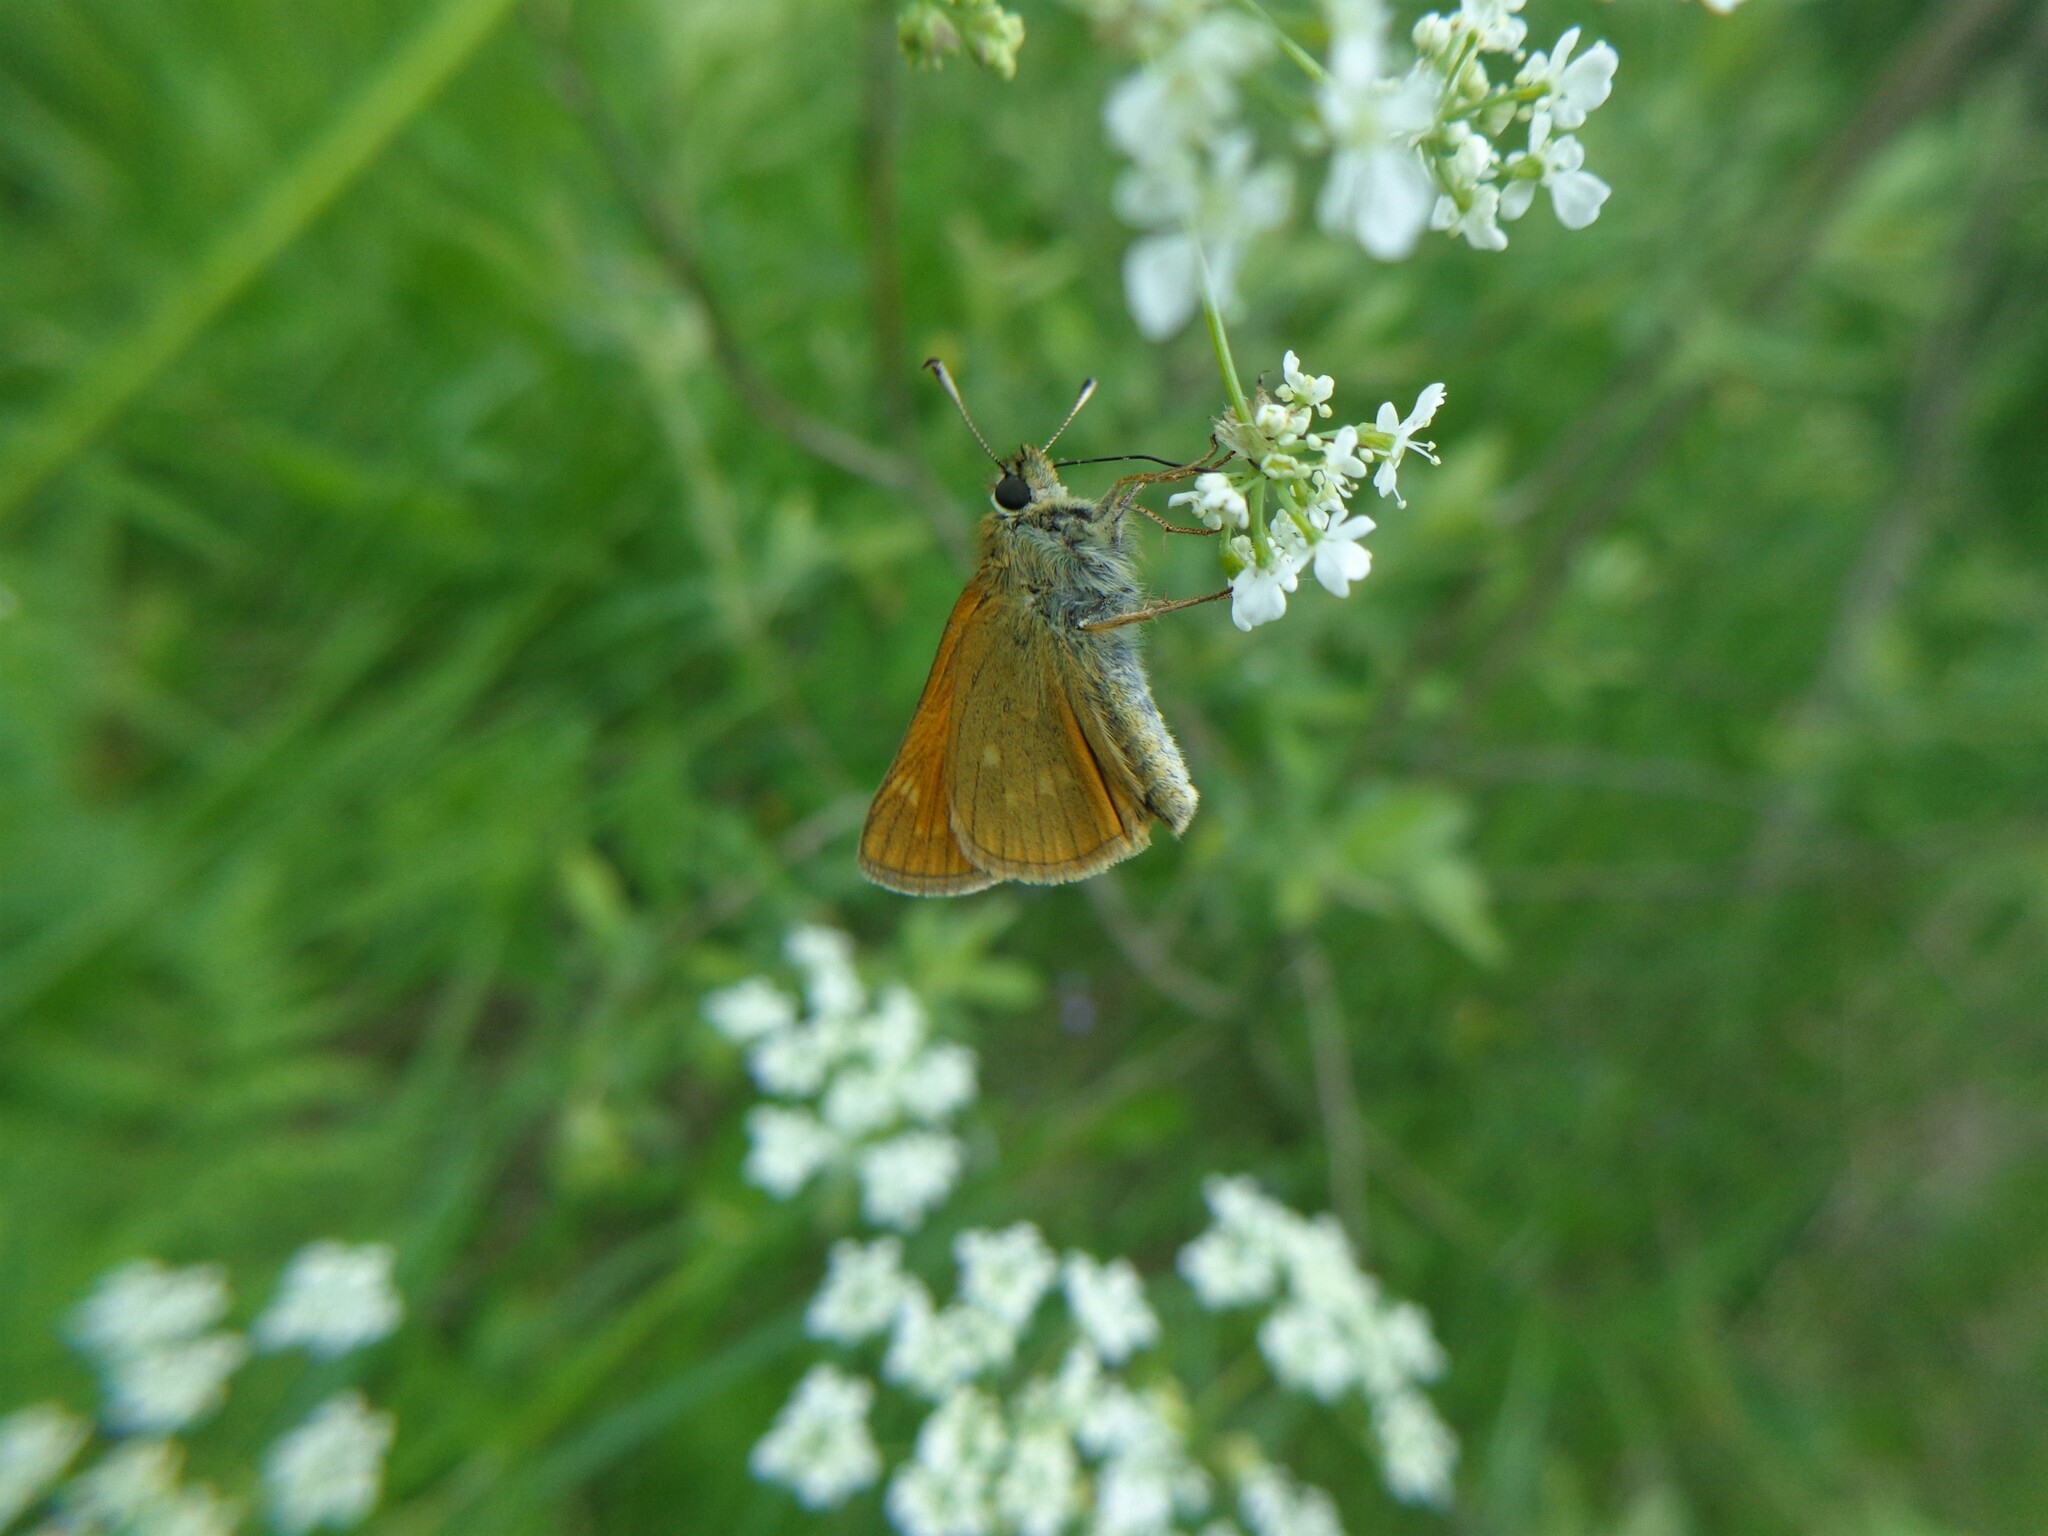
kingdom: Animalia
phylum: Arthropoda
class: Insecta
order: Lepidoptera
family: Hesperiidae
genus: Ochlodes
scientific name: Ochlodes venata
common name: Large skipper
